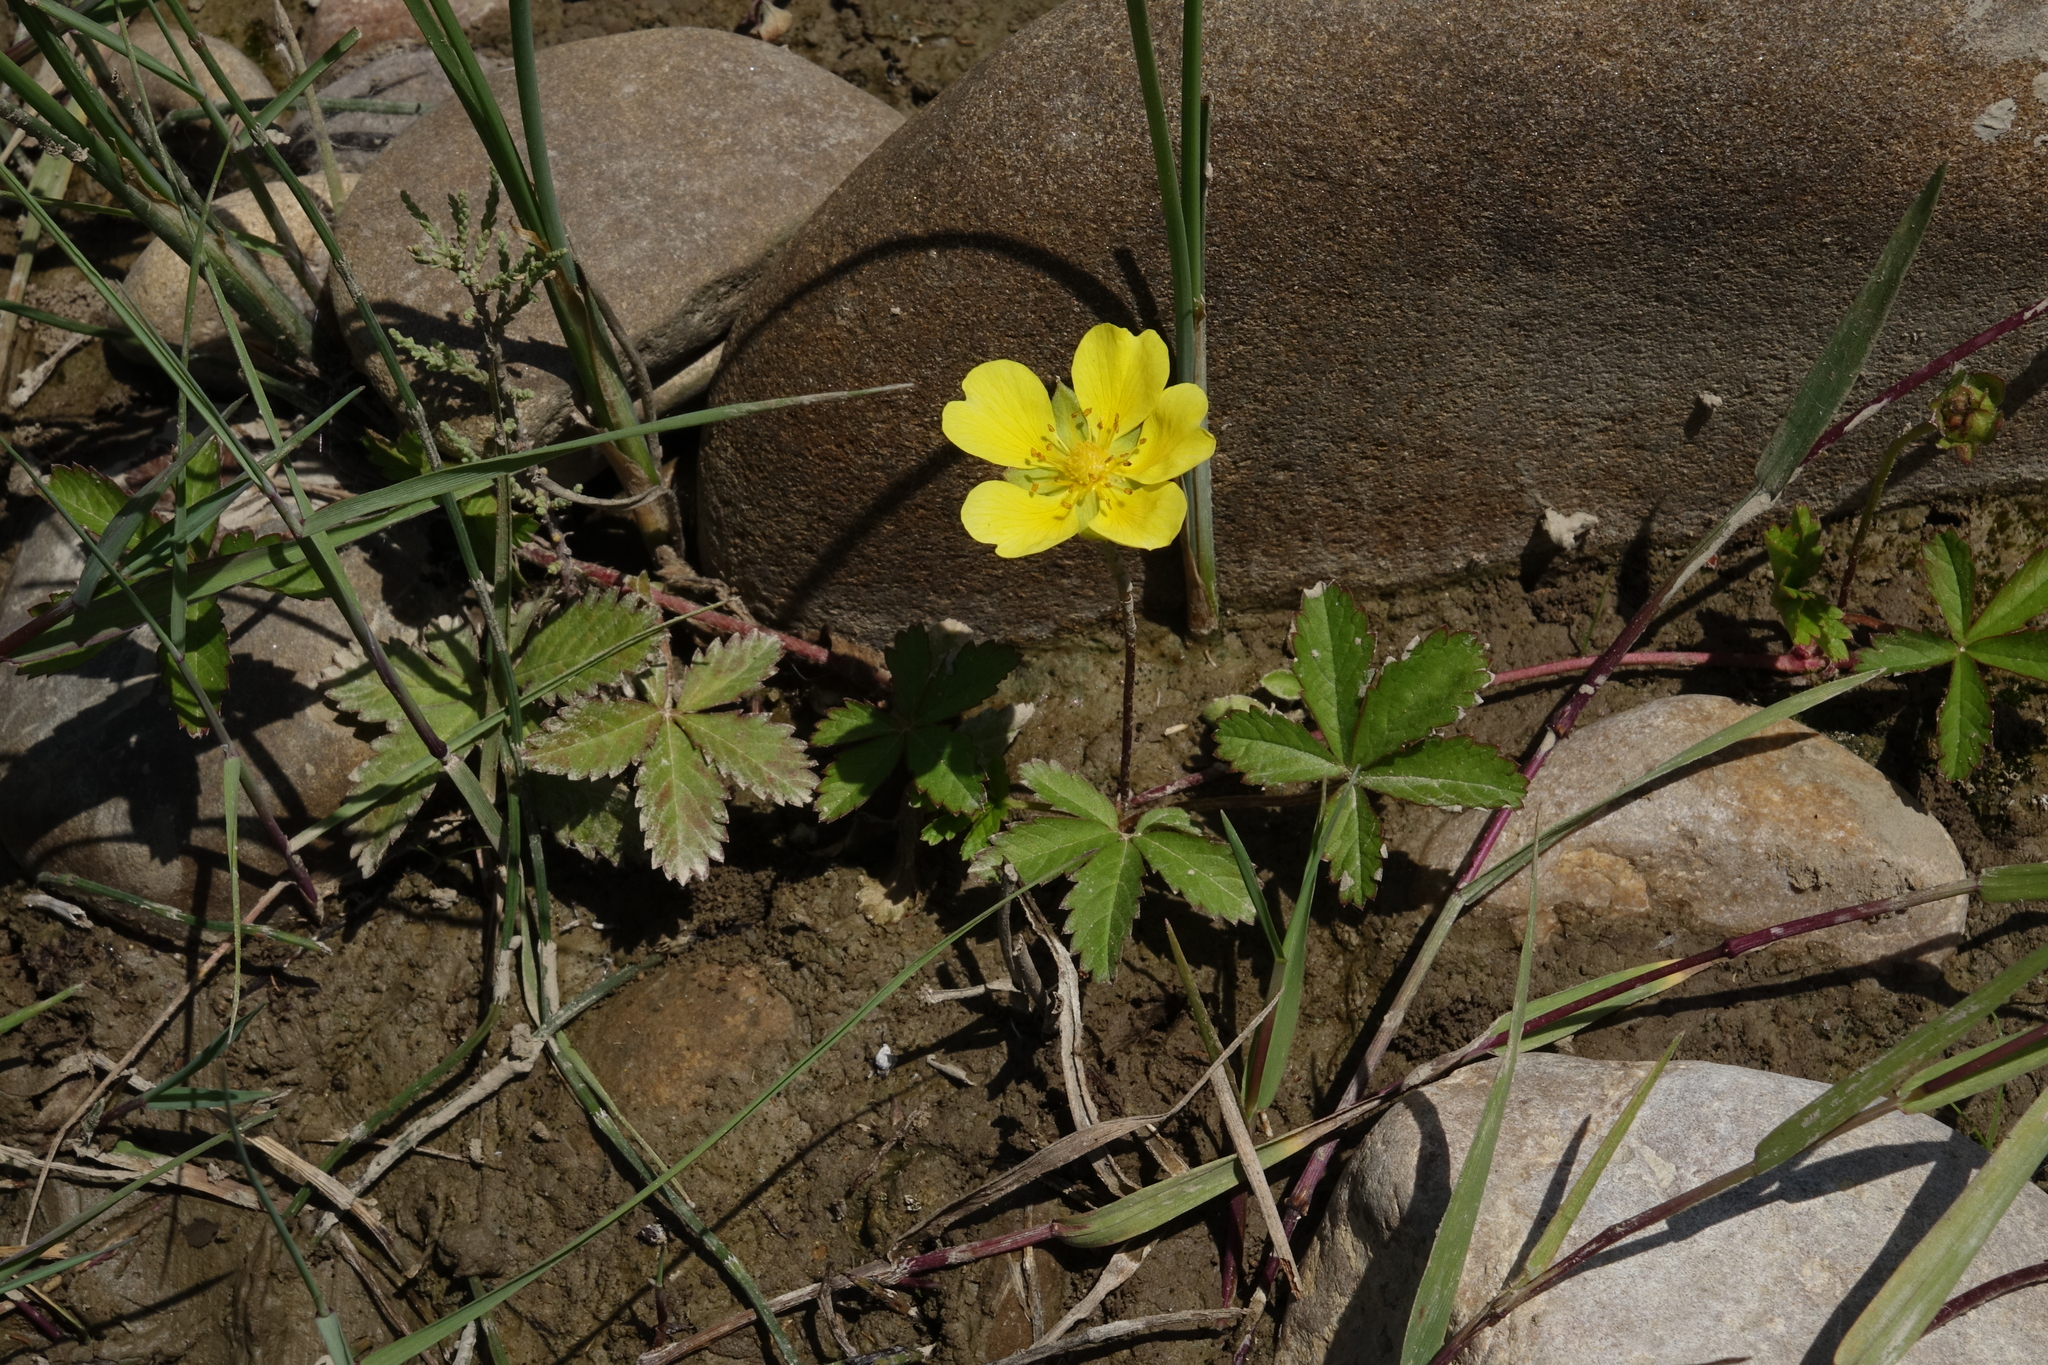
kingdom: Plantae
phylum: Tracheophyta
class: Magnoliopsida
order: Rosales
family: Rosaceae
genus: Potentilla
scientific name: Potentilla reptans
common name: Creeping cinquefoil
